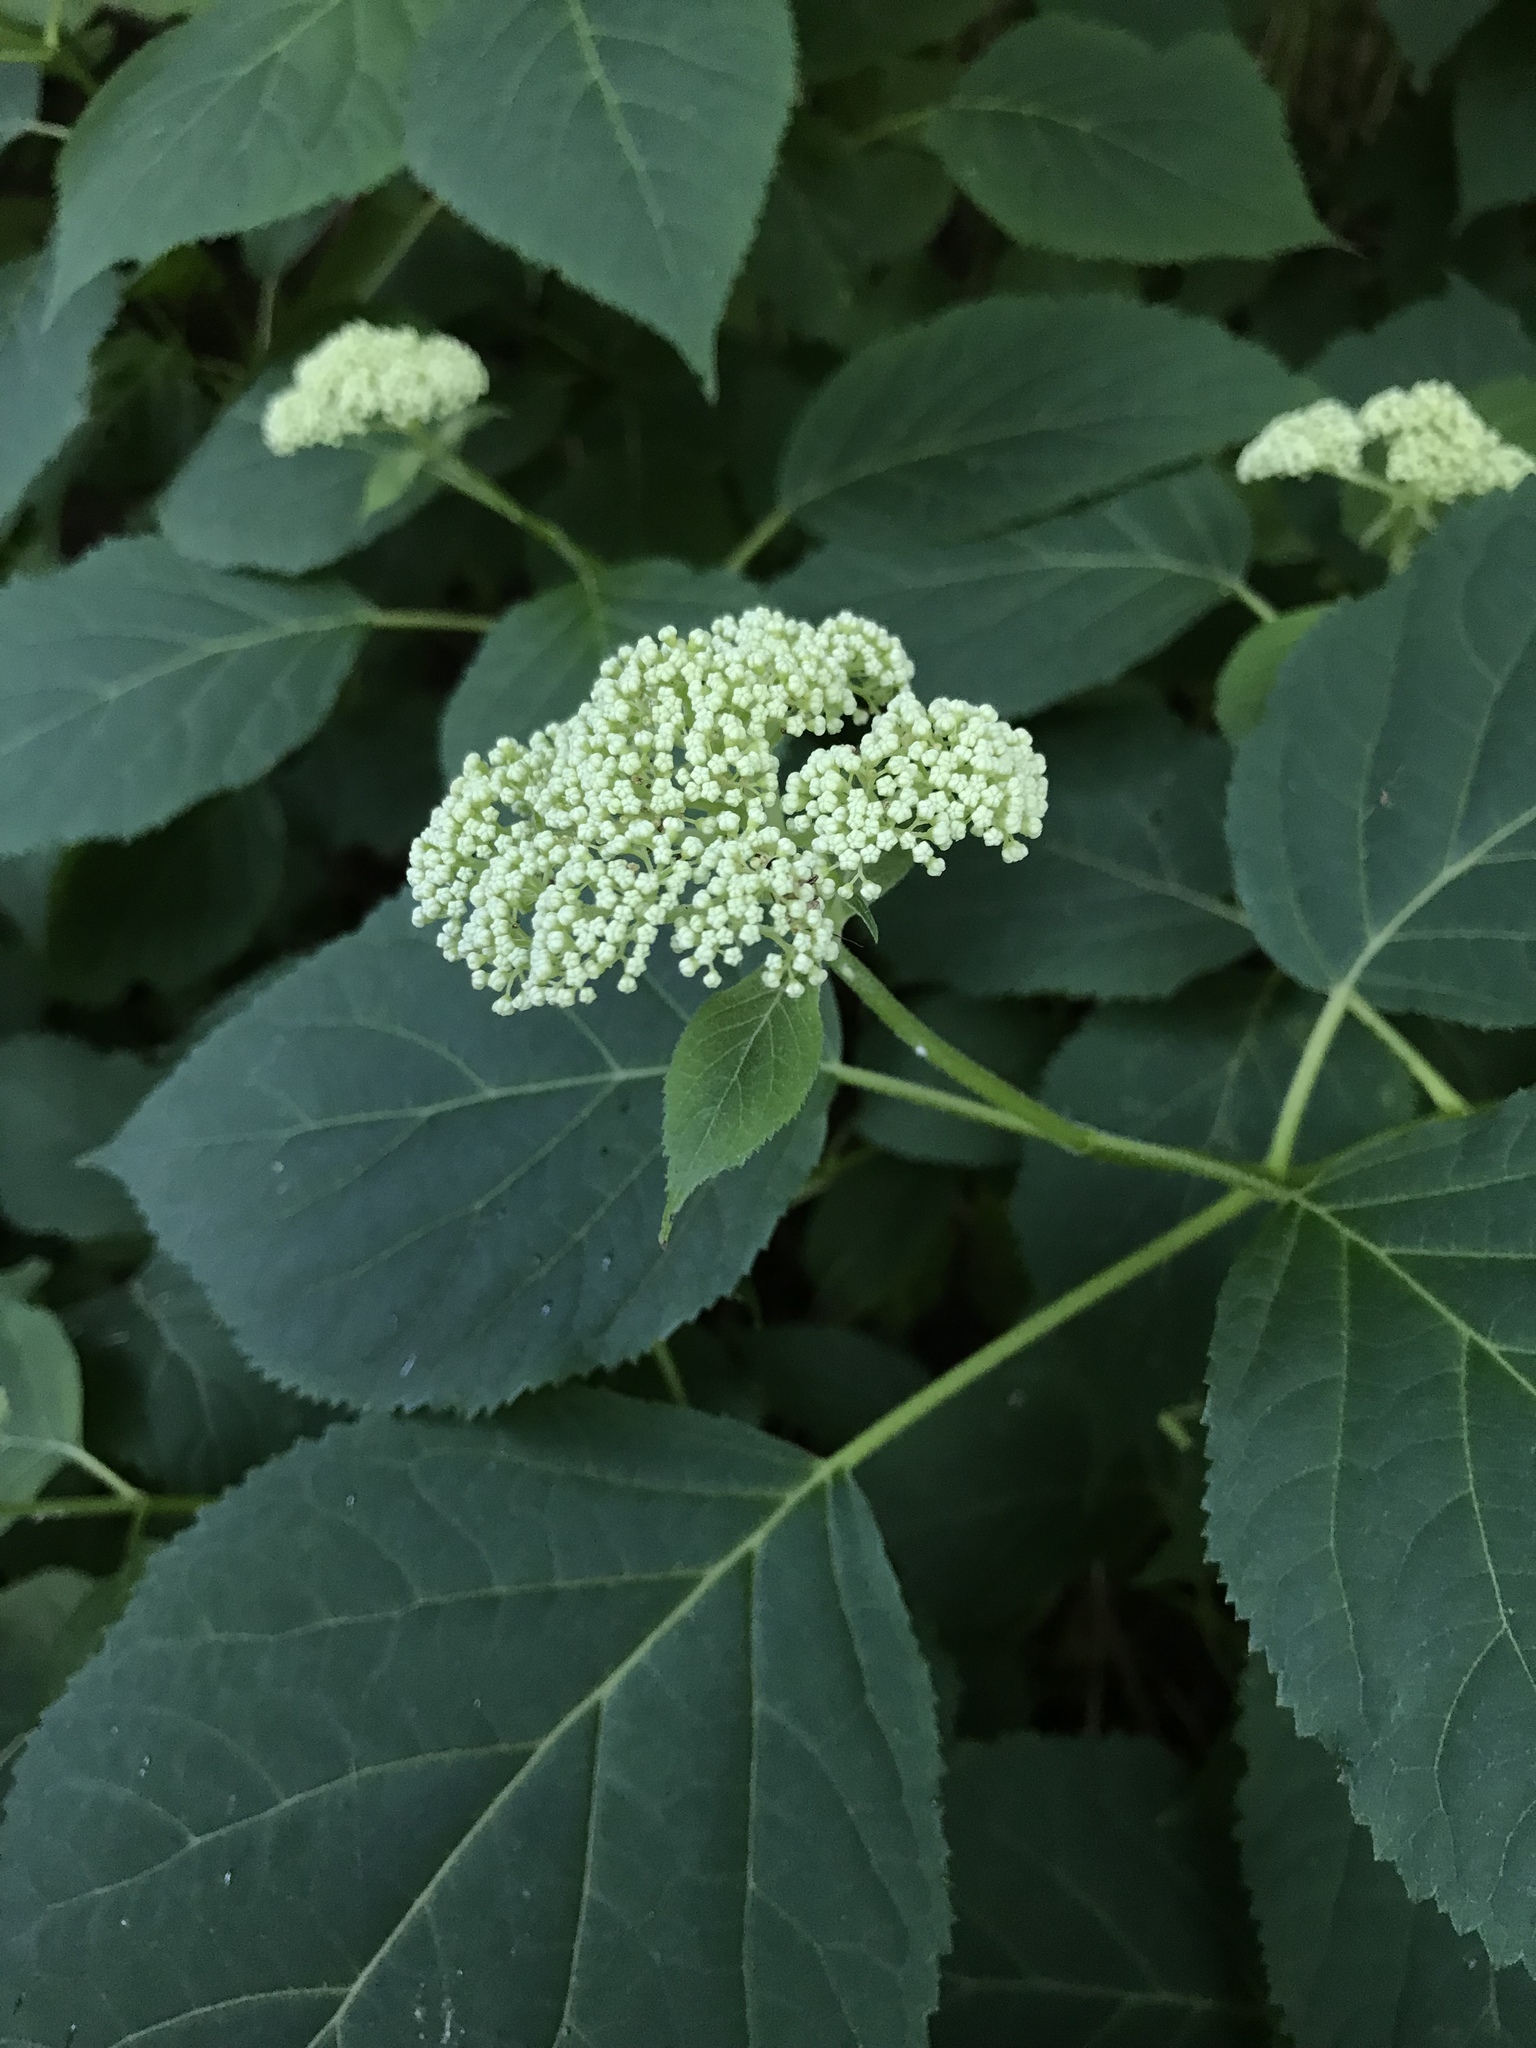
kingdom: Plantae
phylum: Tracheophyta
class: Magnoliopsida
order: Cornales
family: Hydrangeaceae
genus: Hydrangea
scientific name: Hydrangea arborescens
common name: Sevenbark
